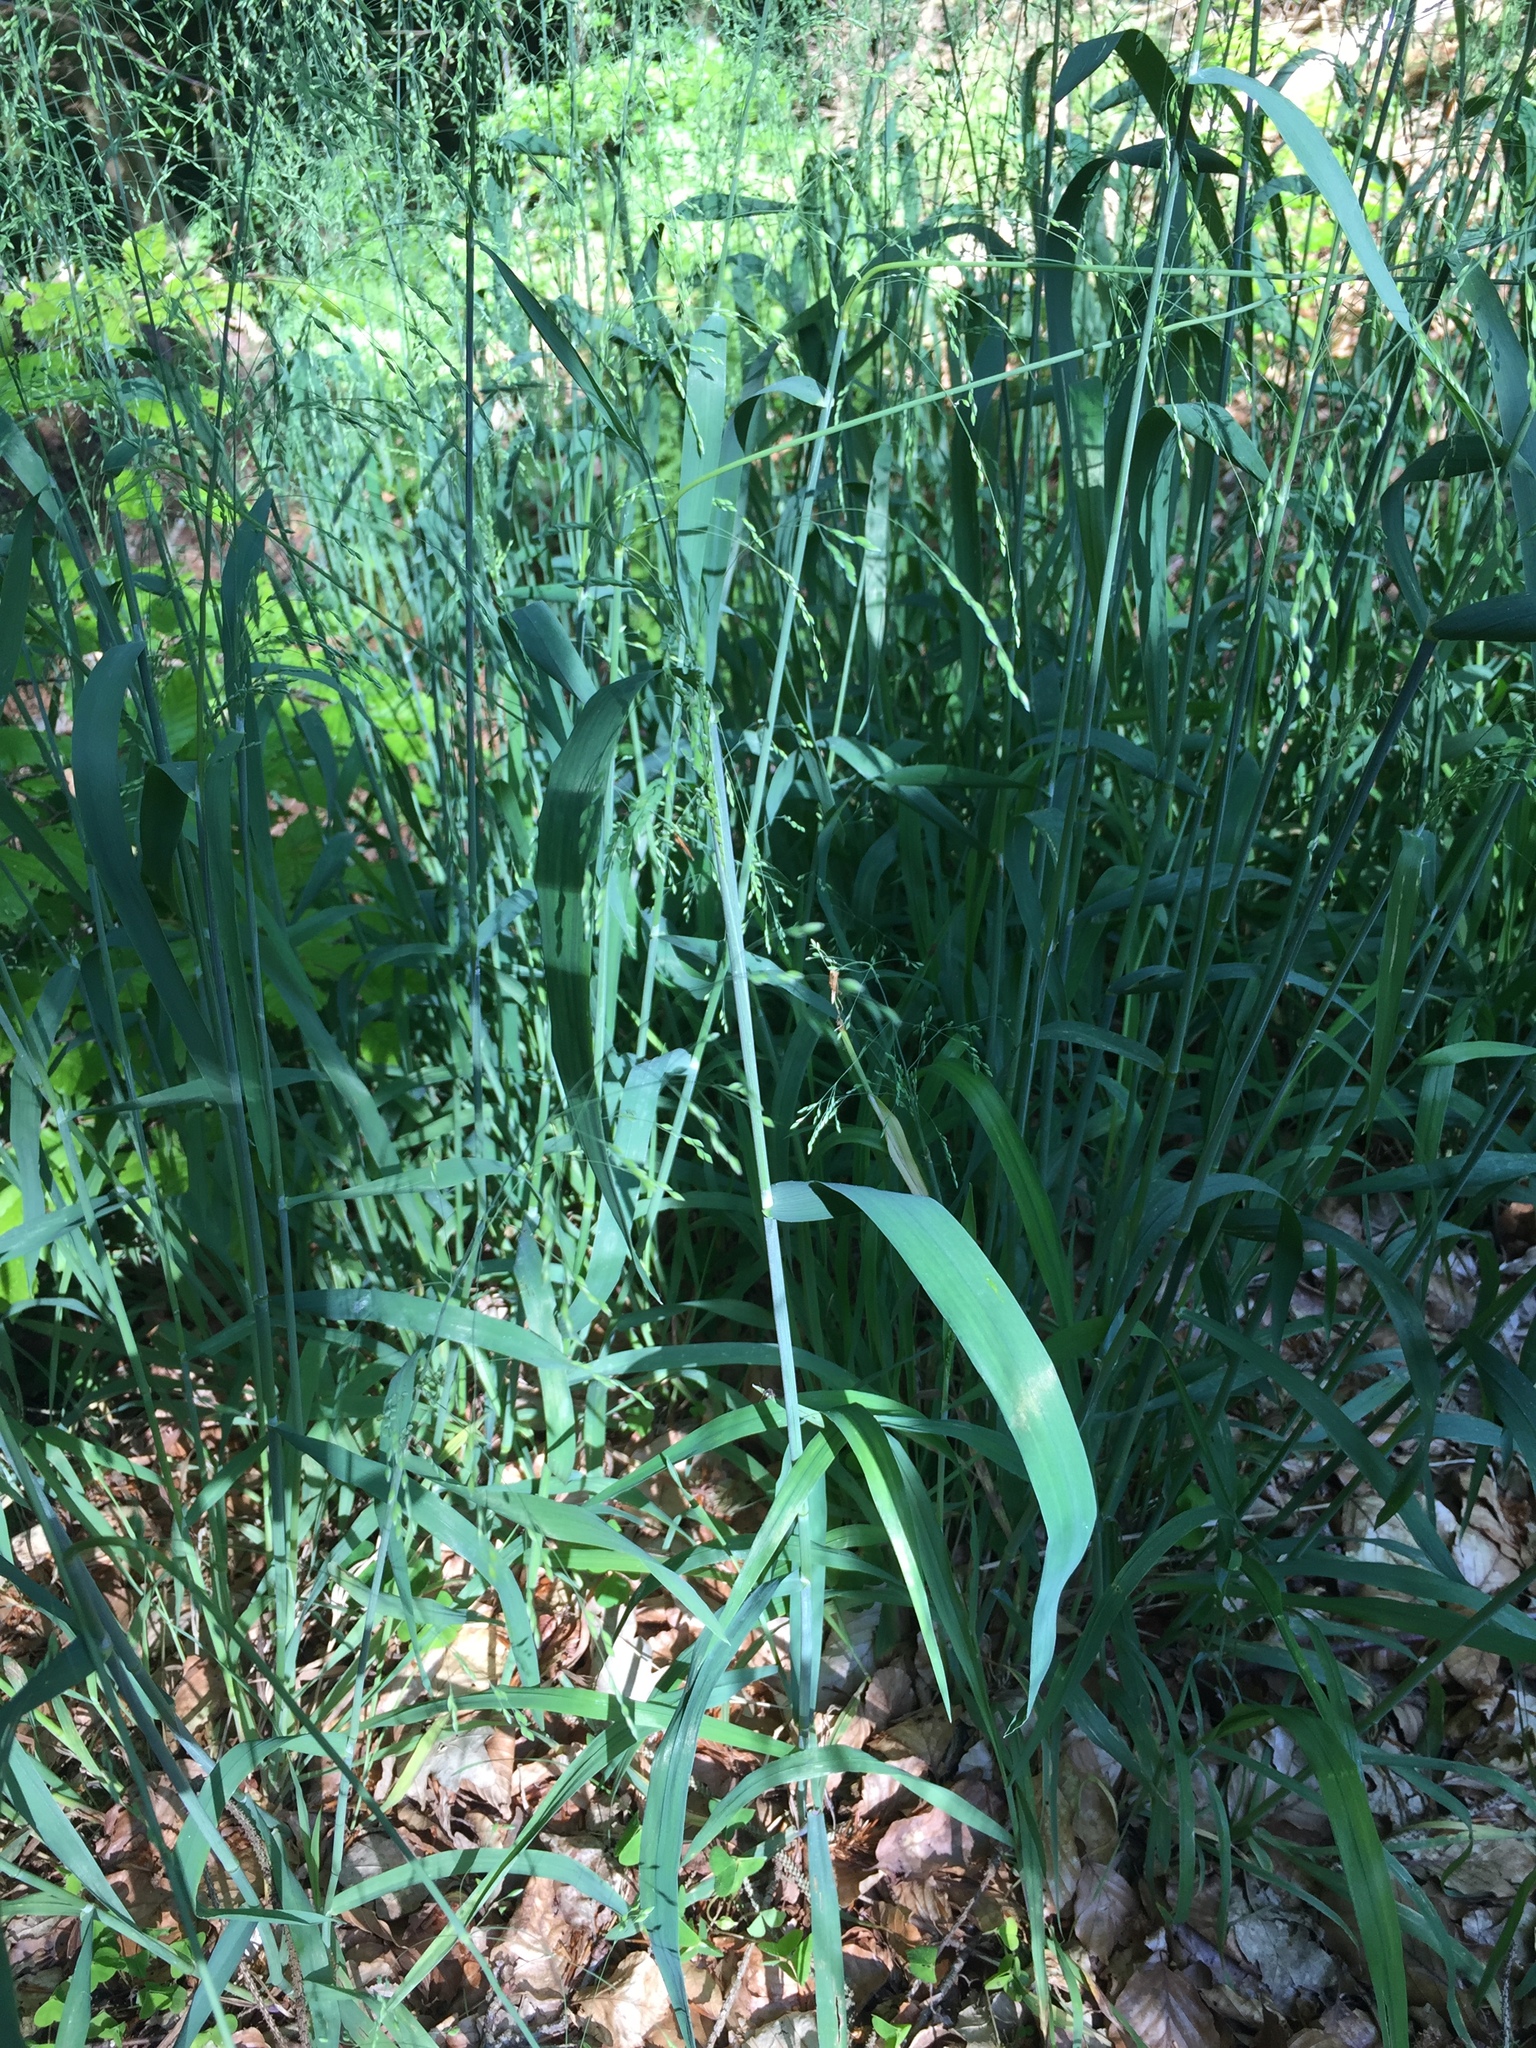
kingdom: Plantae
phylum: Tracheophyta
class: Liliopsida
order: Poales
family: Poaceae
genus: Milium
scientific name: Milium effusum
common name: Wood millet
